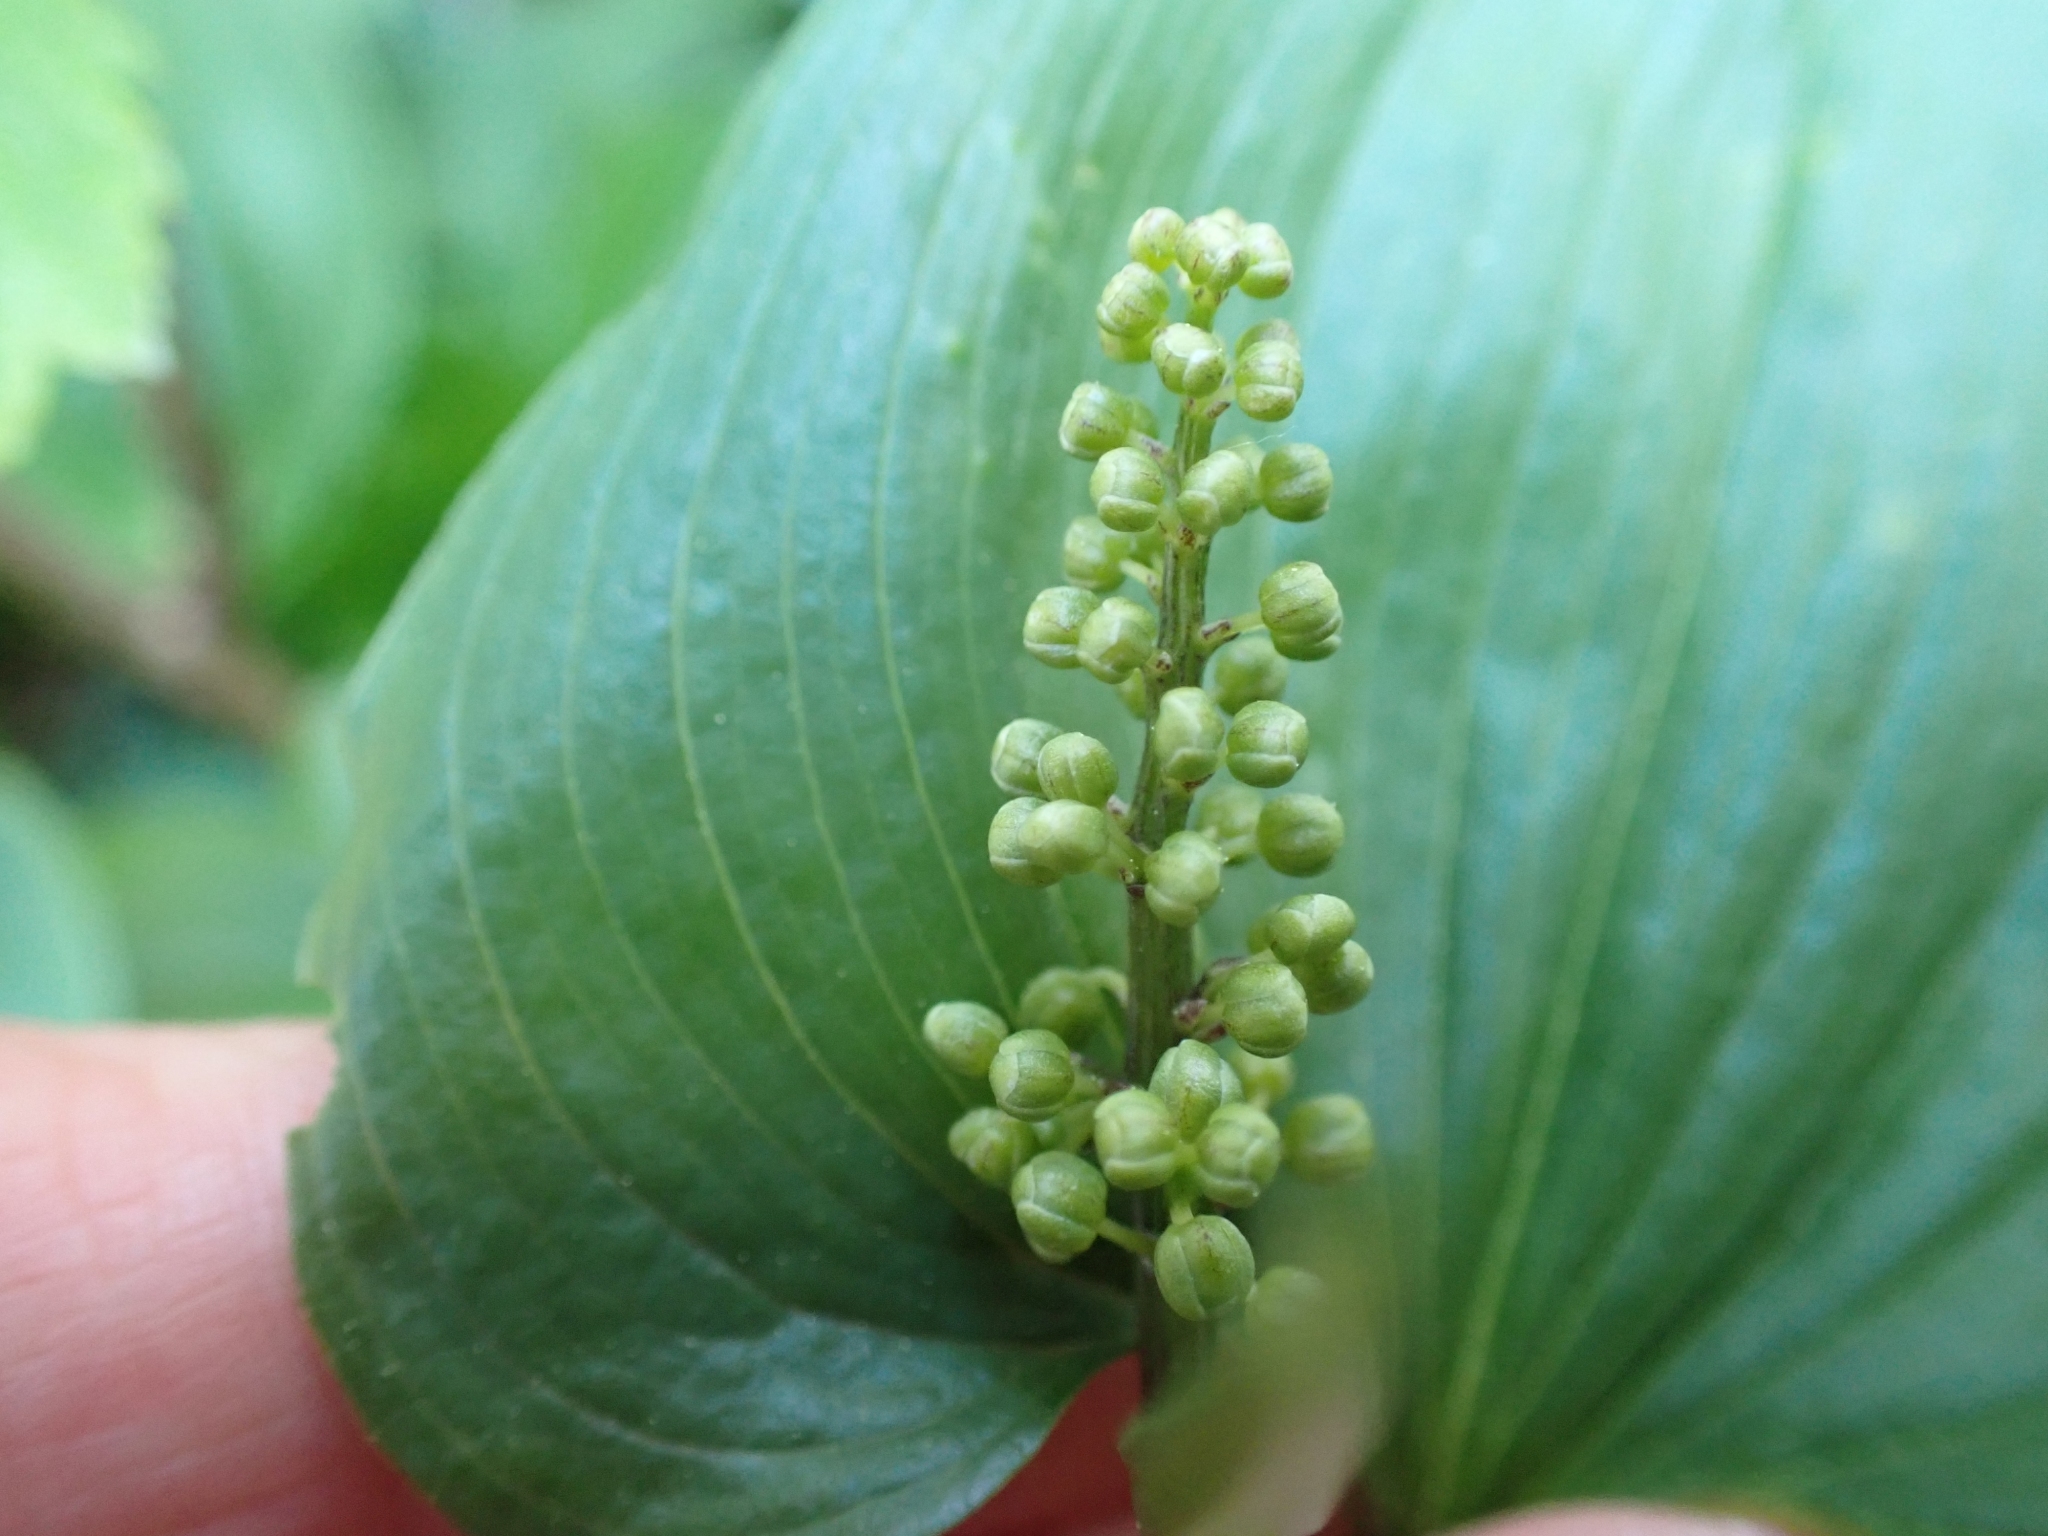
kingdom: Plantae
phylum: Tracheophyta
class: Liliopsida
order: Asparagales
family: Asparagaceae
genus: Maianthemum
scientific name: Maianthemum dilatatum
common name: False lily-of-the-valley
